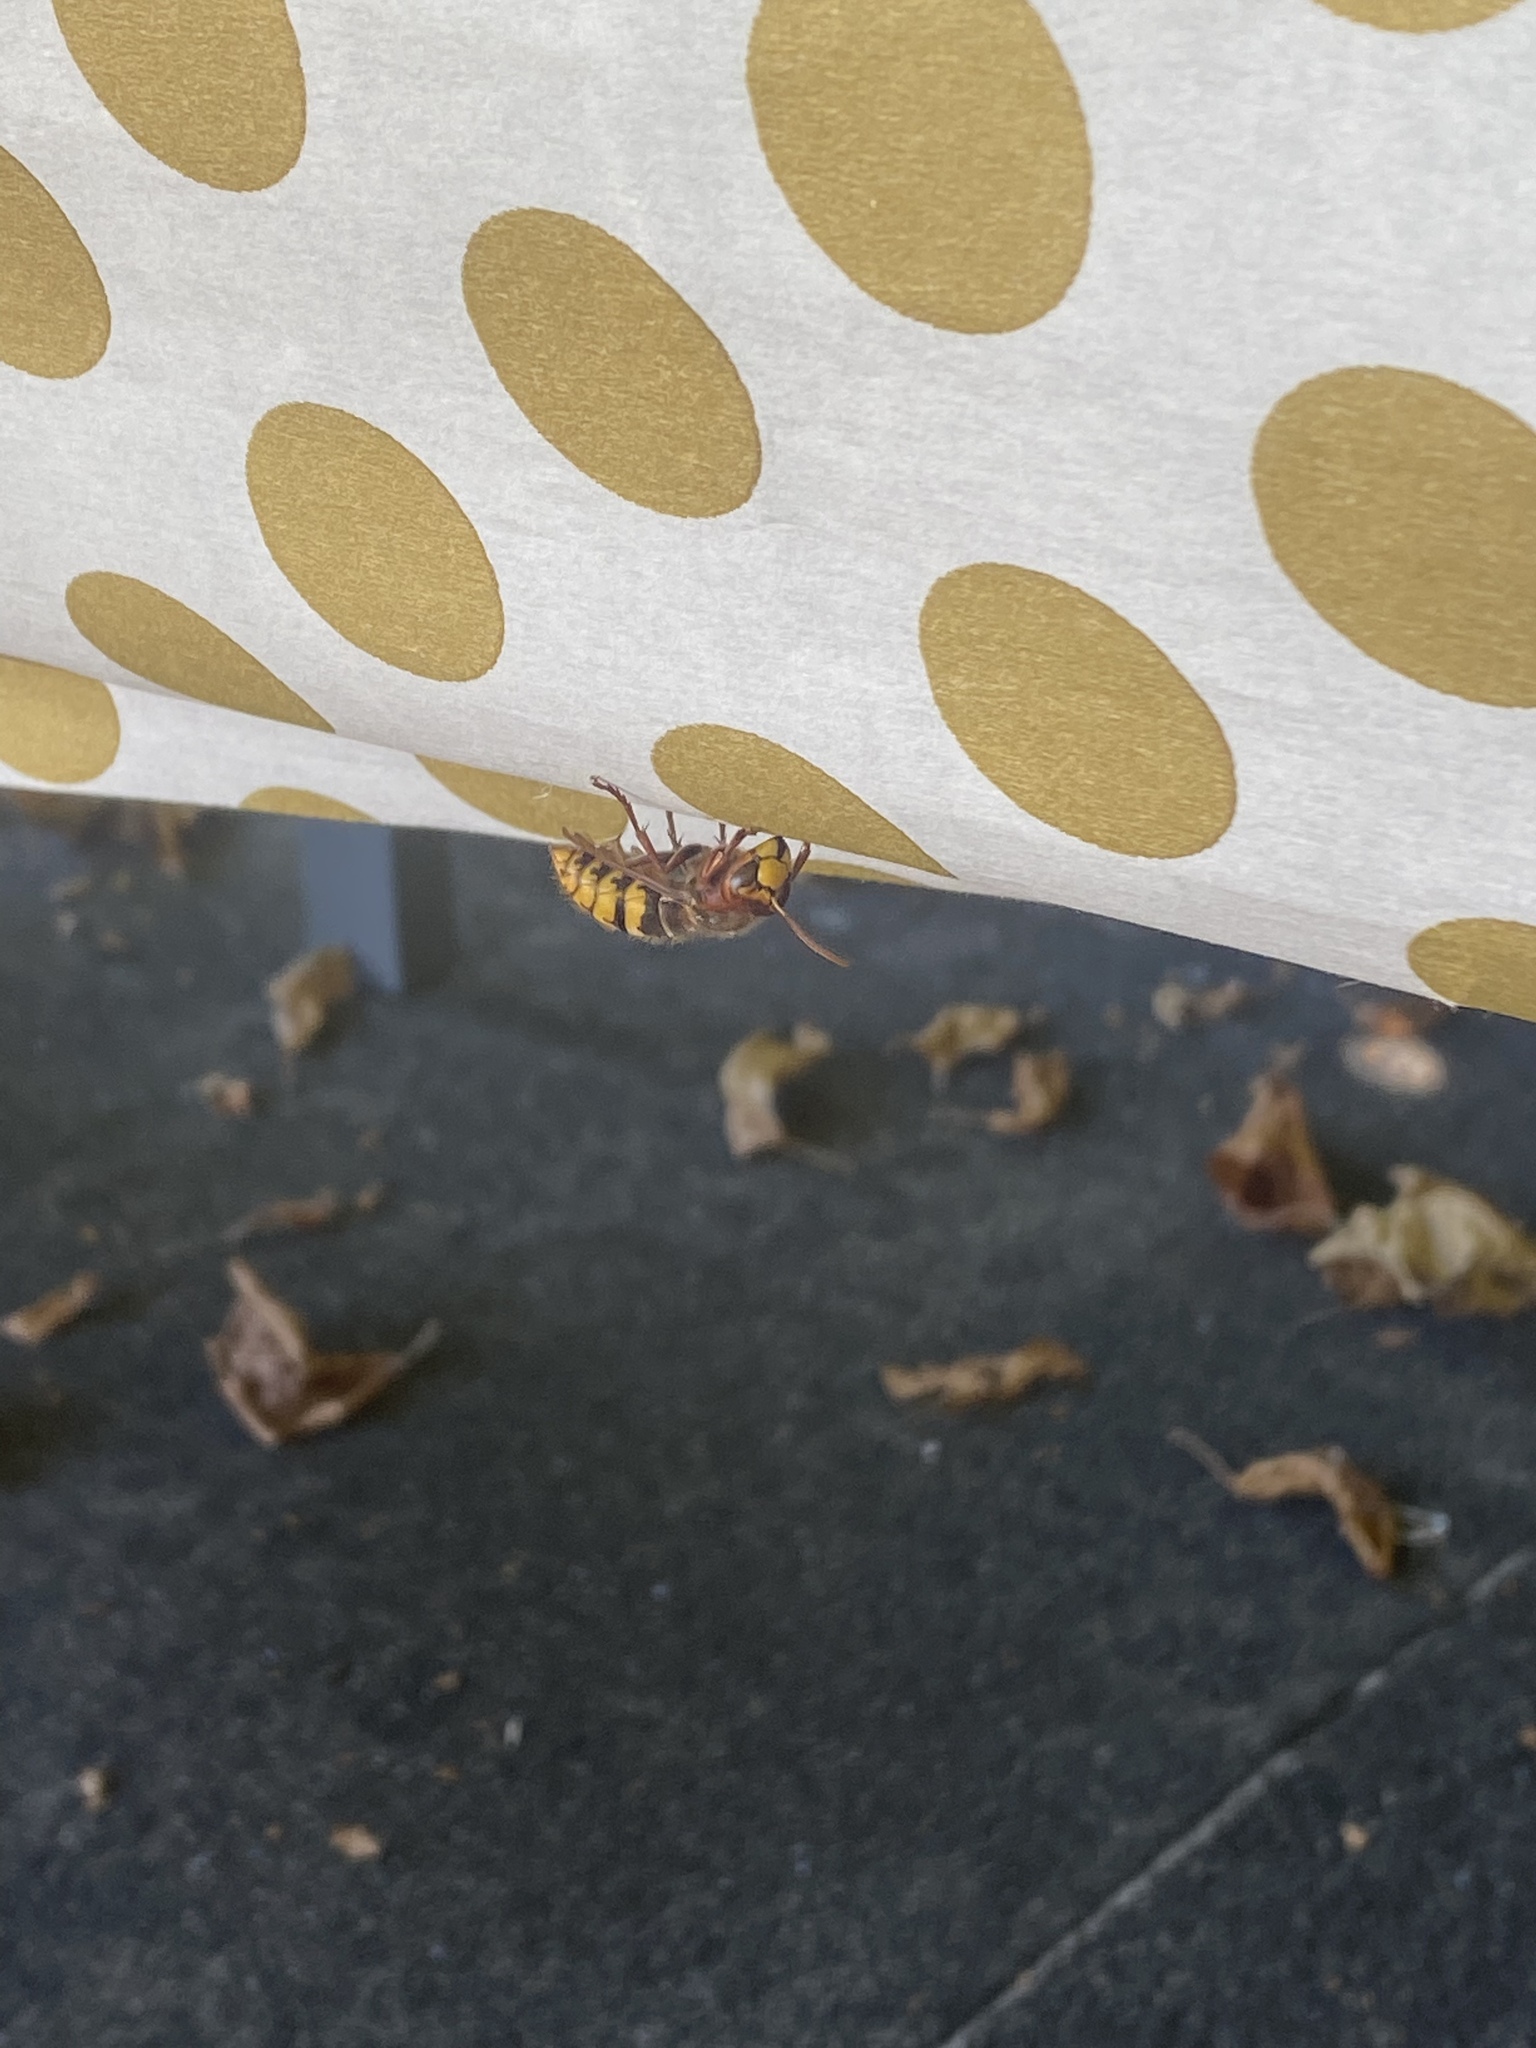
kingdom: Animalia
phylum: Arthropoda
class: Insecta
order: Hymenoptera
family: Vespidae
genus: Vespa
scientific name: Vespa crabro
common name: Hornet
